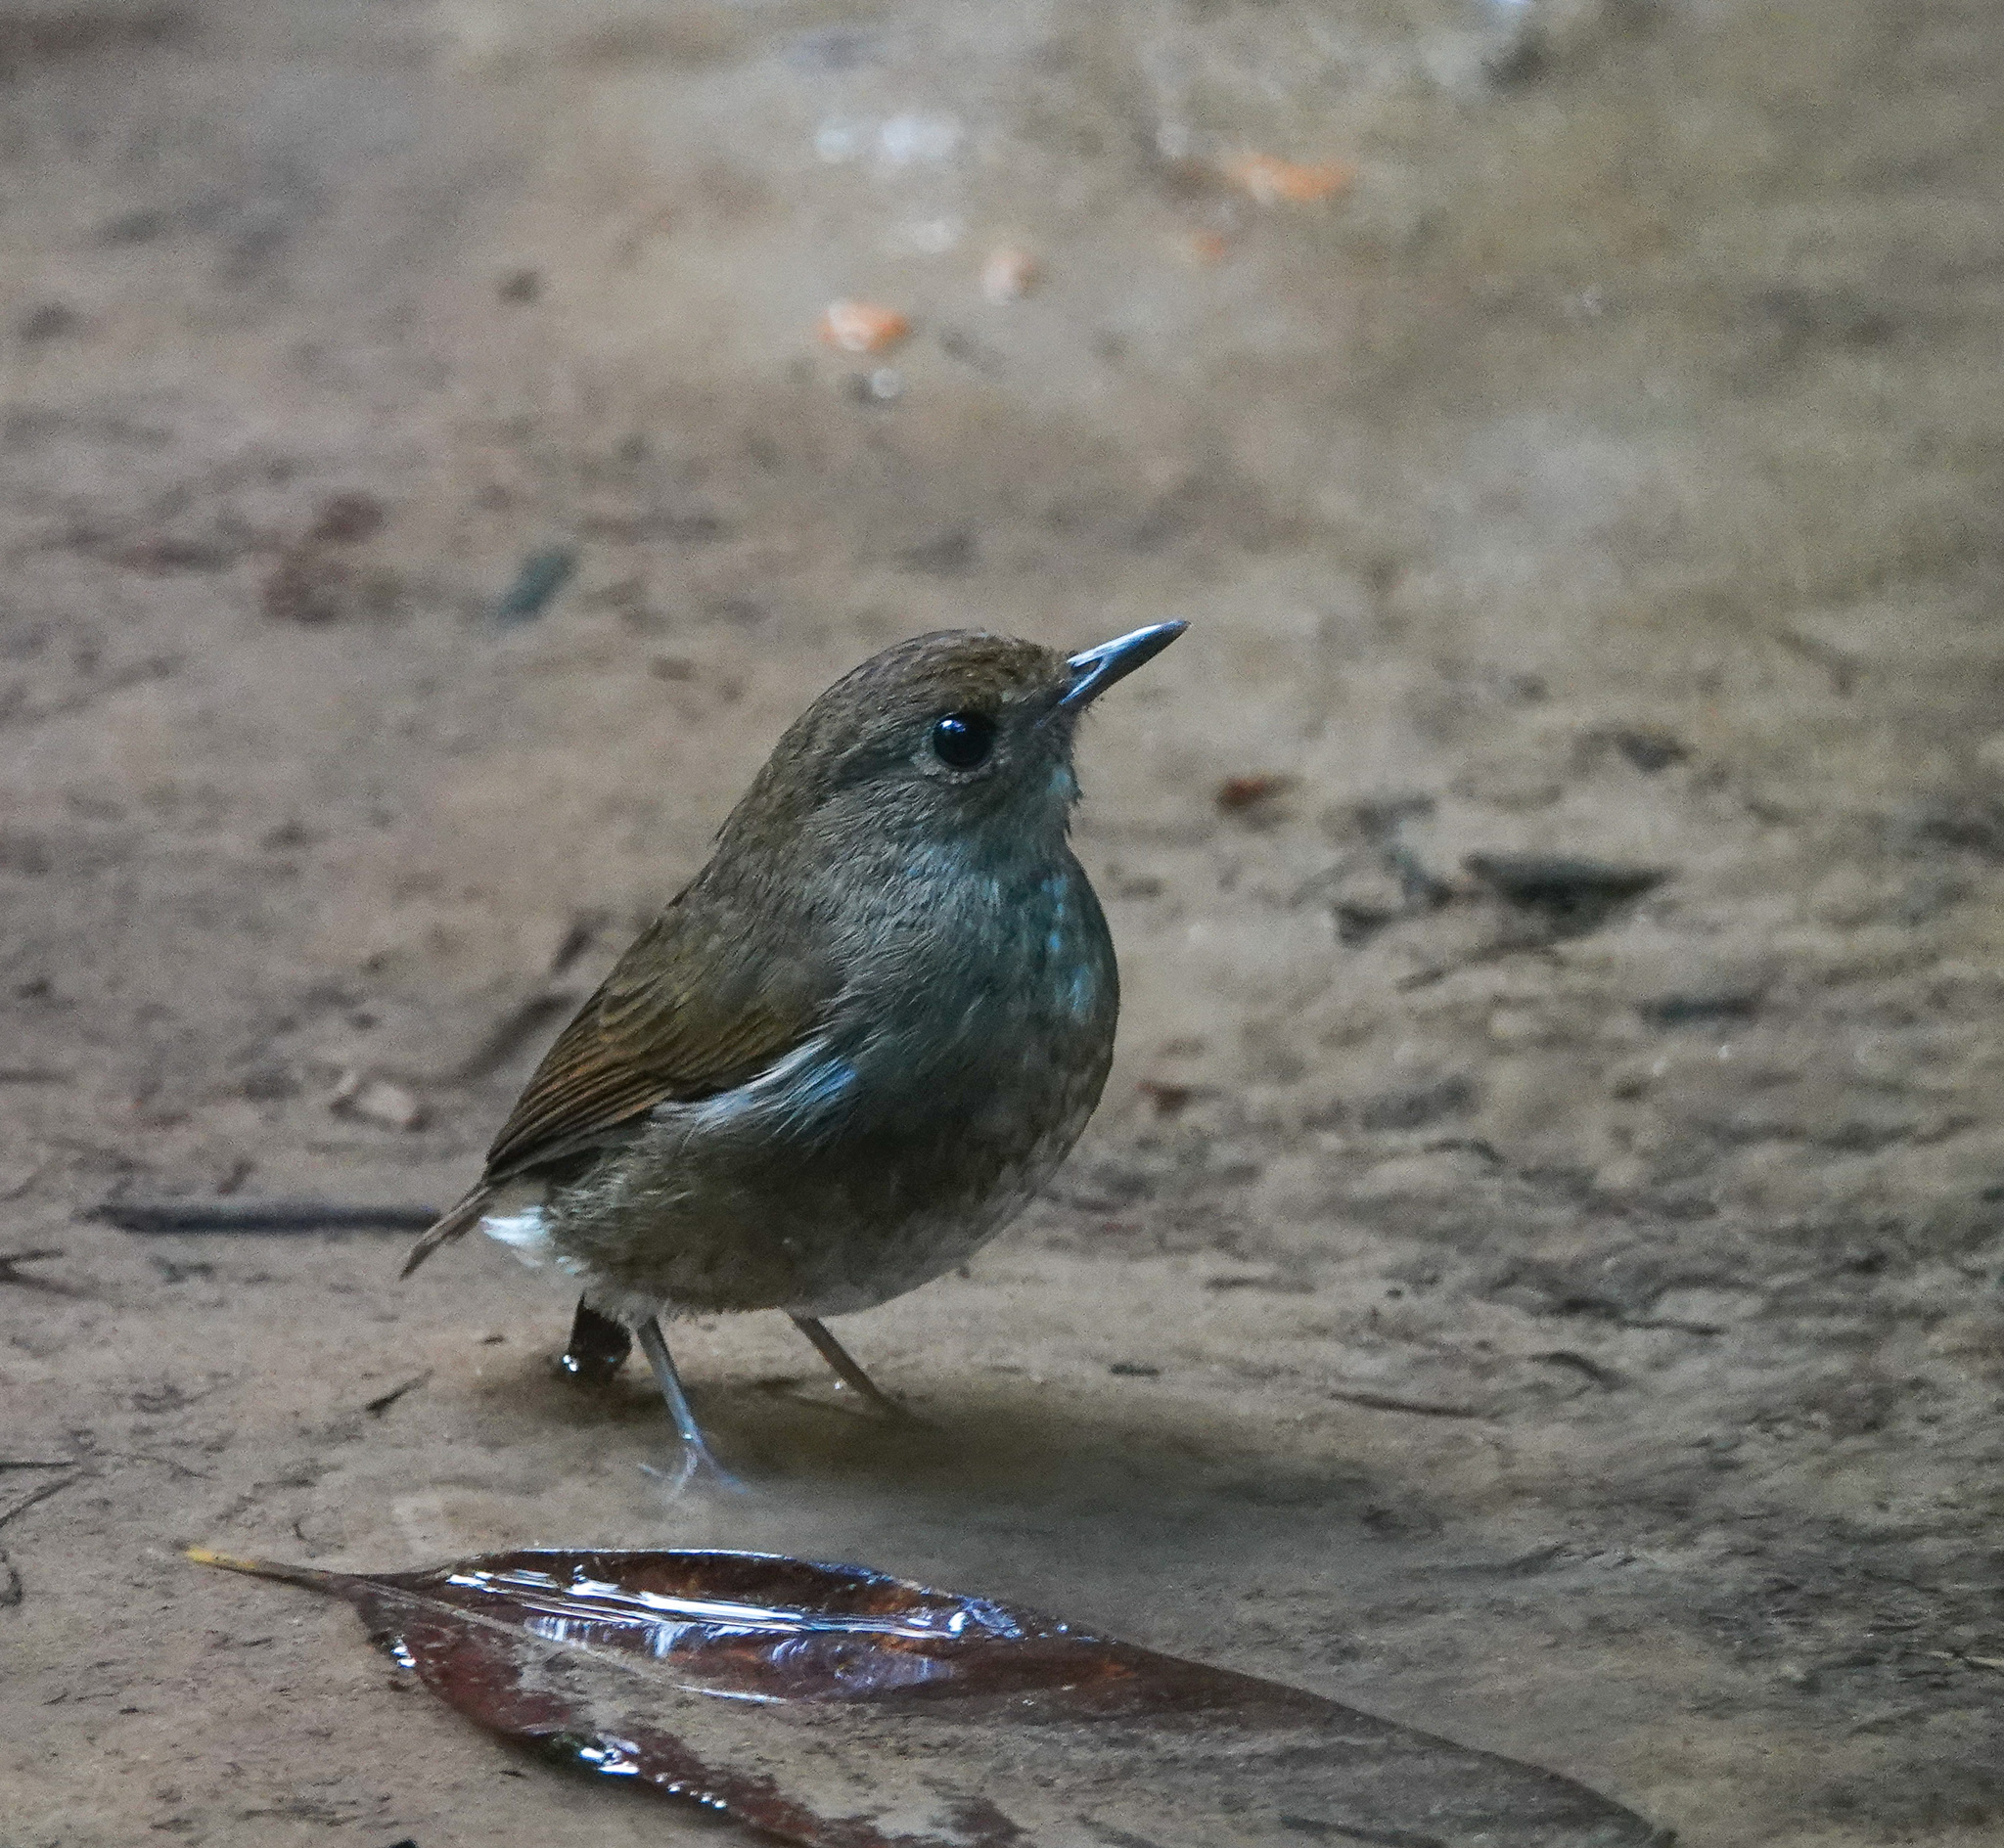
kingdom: Animalia
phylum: Chordata
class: Aves
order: Passeriformes
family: Muscicapidae
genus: Brachypteryx
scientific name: Brachypteryx leucophris
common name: Lesser shortwing
